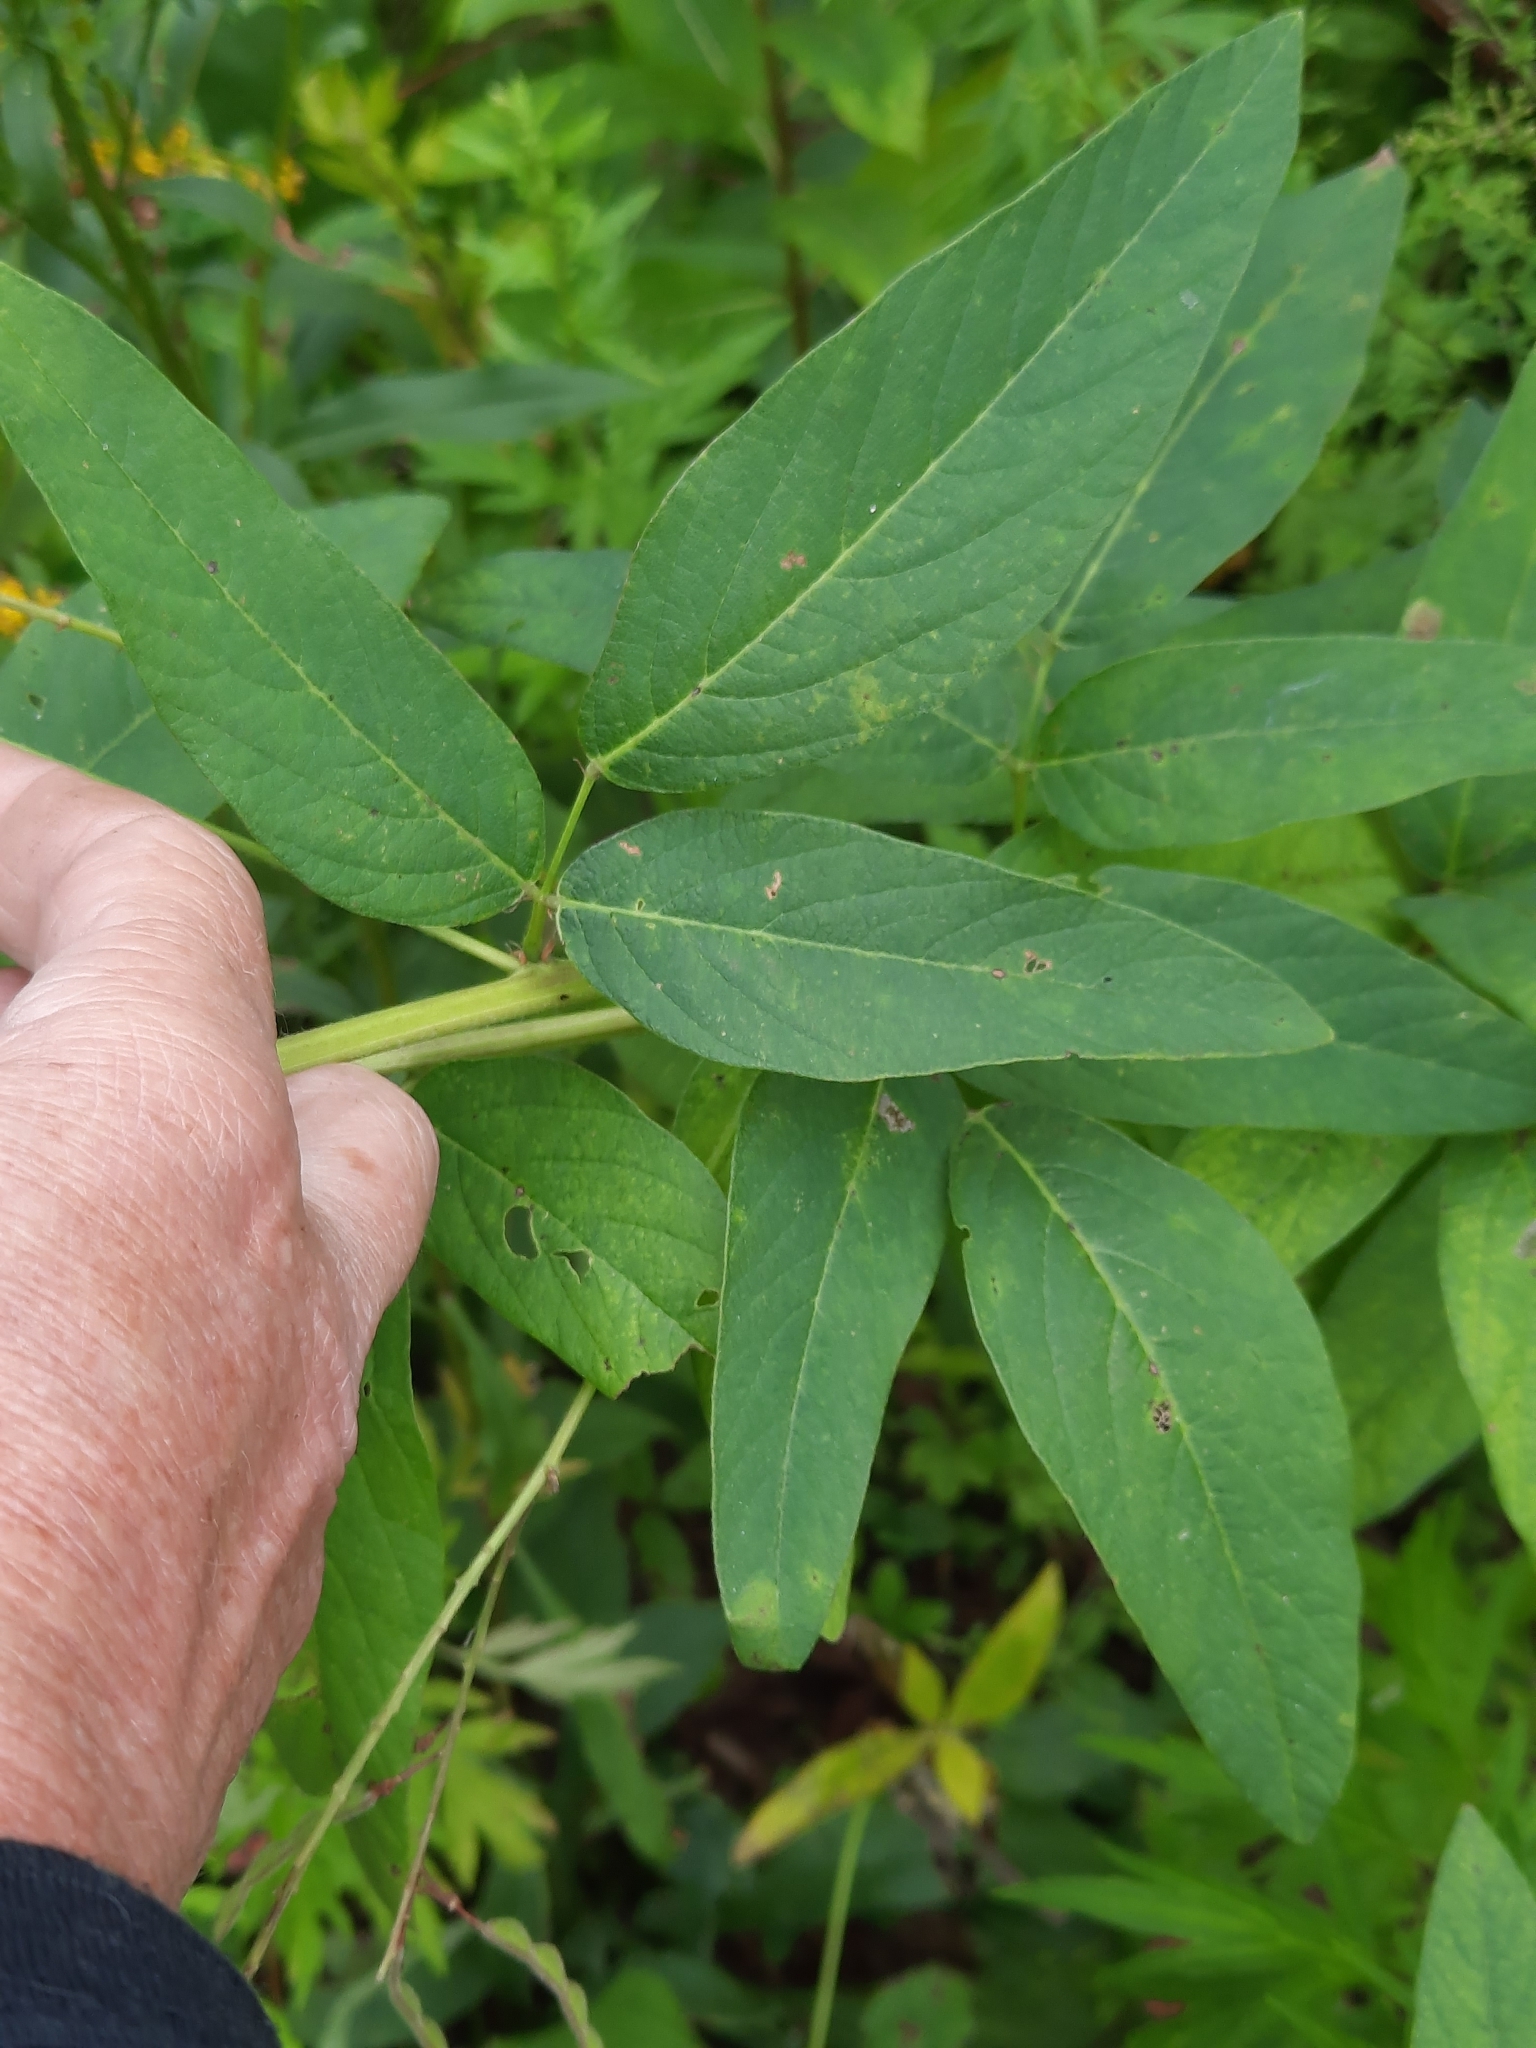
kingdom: Plantae
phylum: Tracheophyta
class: Magnoliopsida
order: Fabales
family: Fabaceae
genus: Desmodium
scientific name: Desmodium canadense
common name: Canada tick-trefoil
